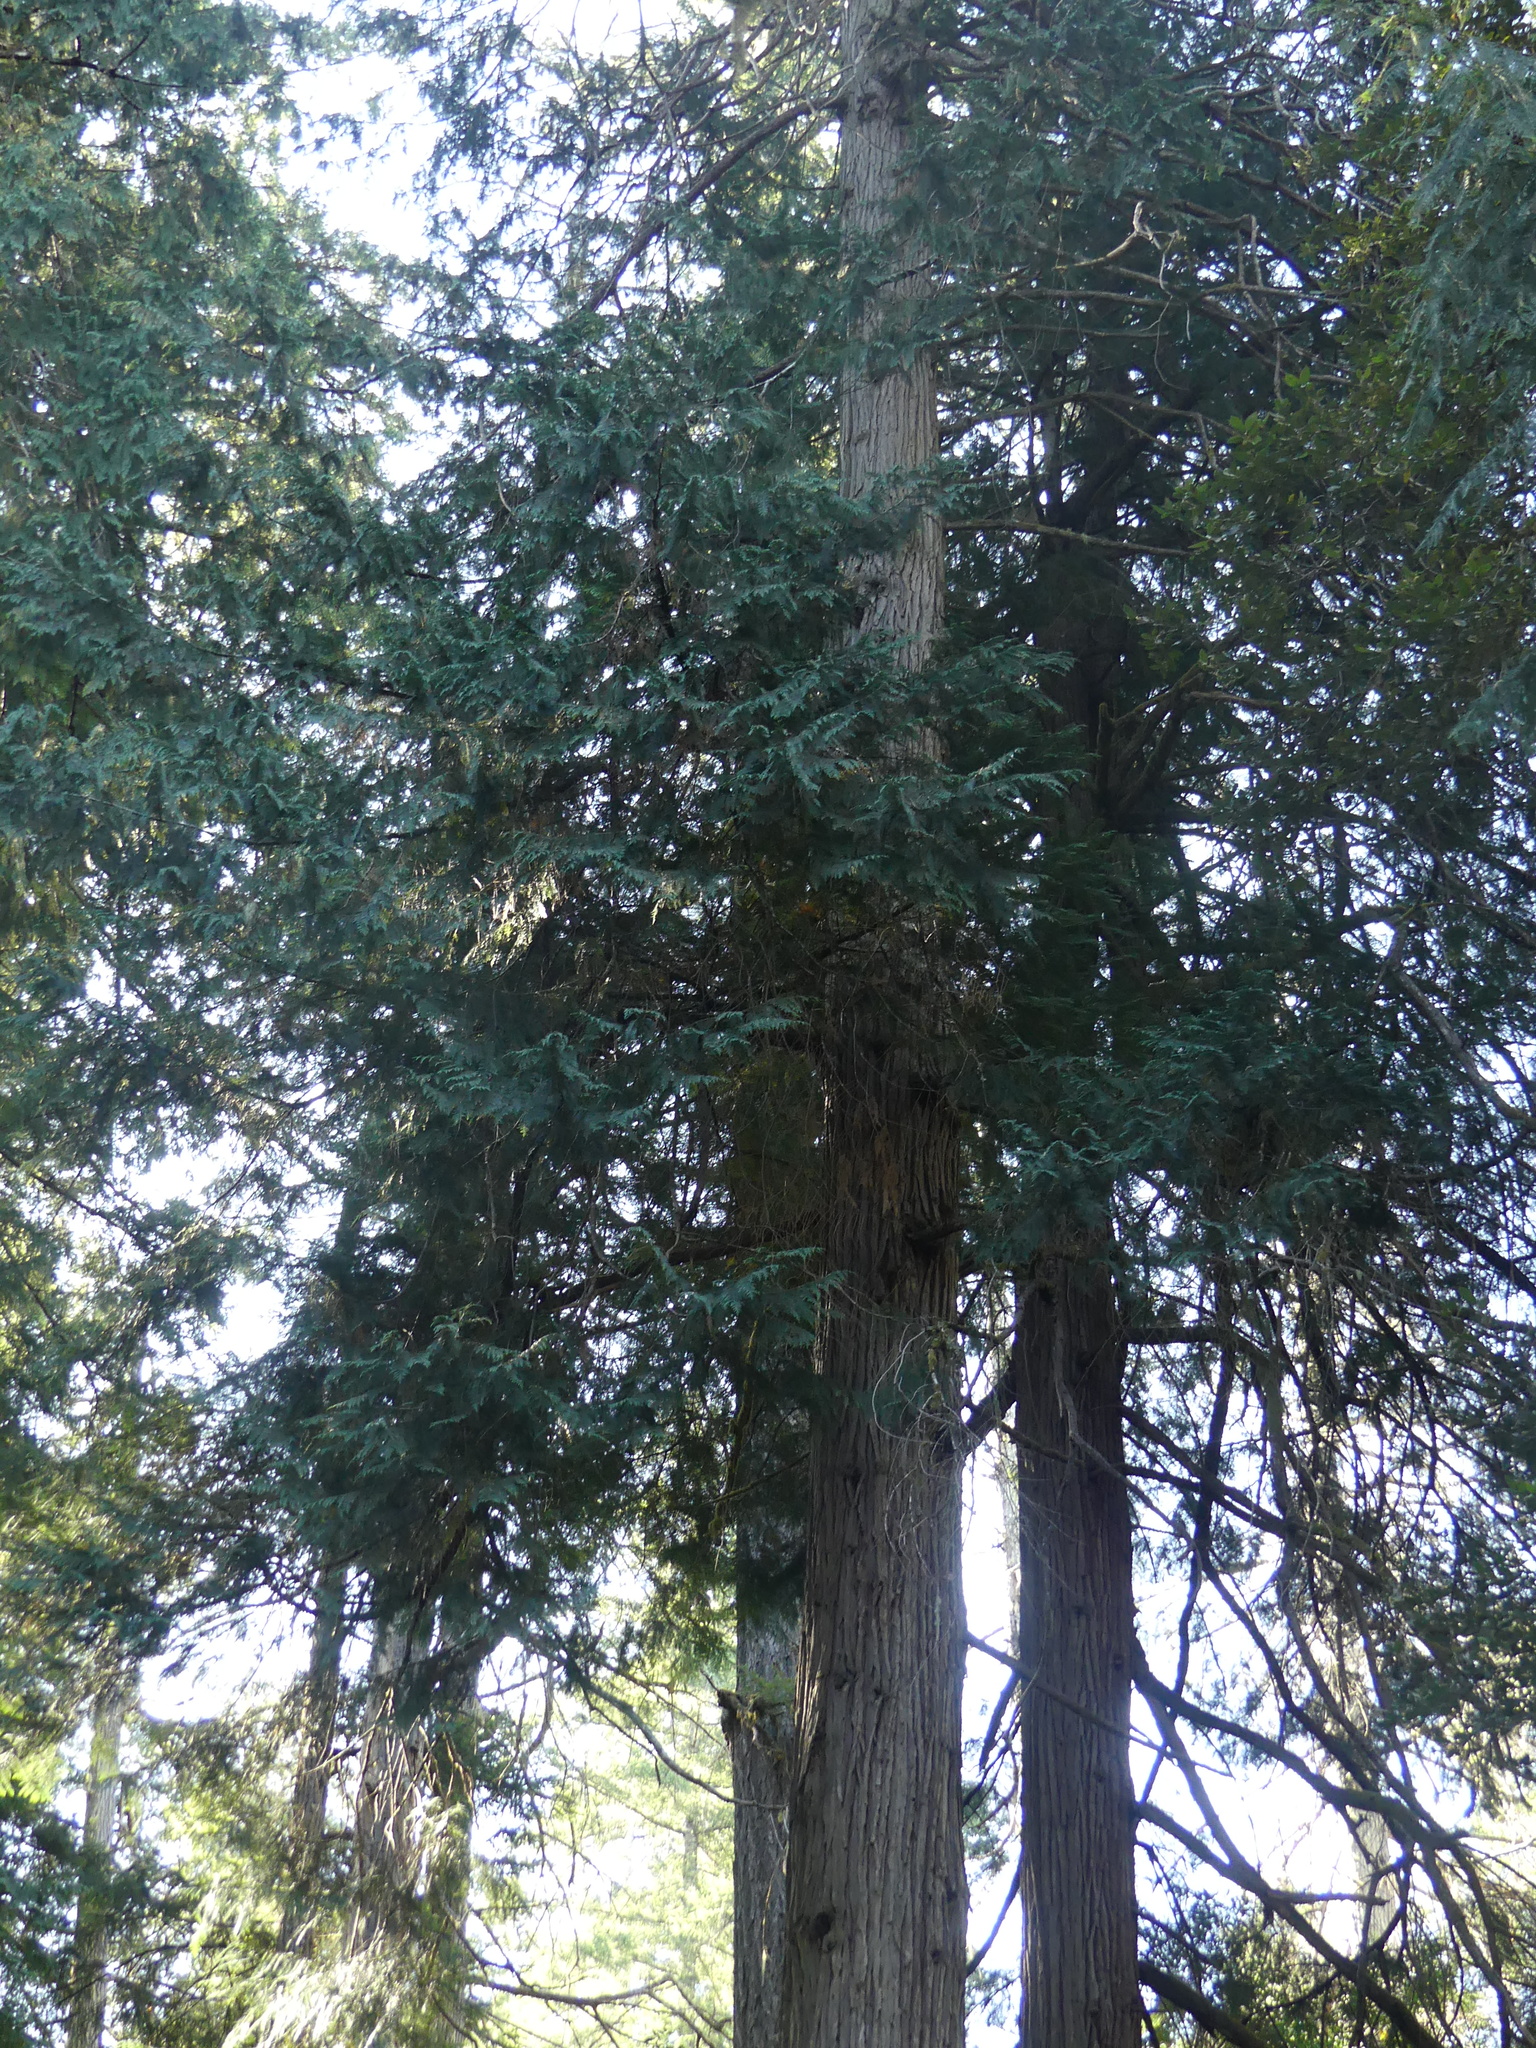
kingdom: Plantae
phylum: Tracheophyta
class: Pinopsida
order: Pinales
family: Cupressaceae
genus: Chamaecyparis
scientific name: Chamaecyparis lawsoniana
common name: Lawson's cypress
